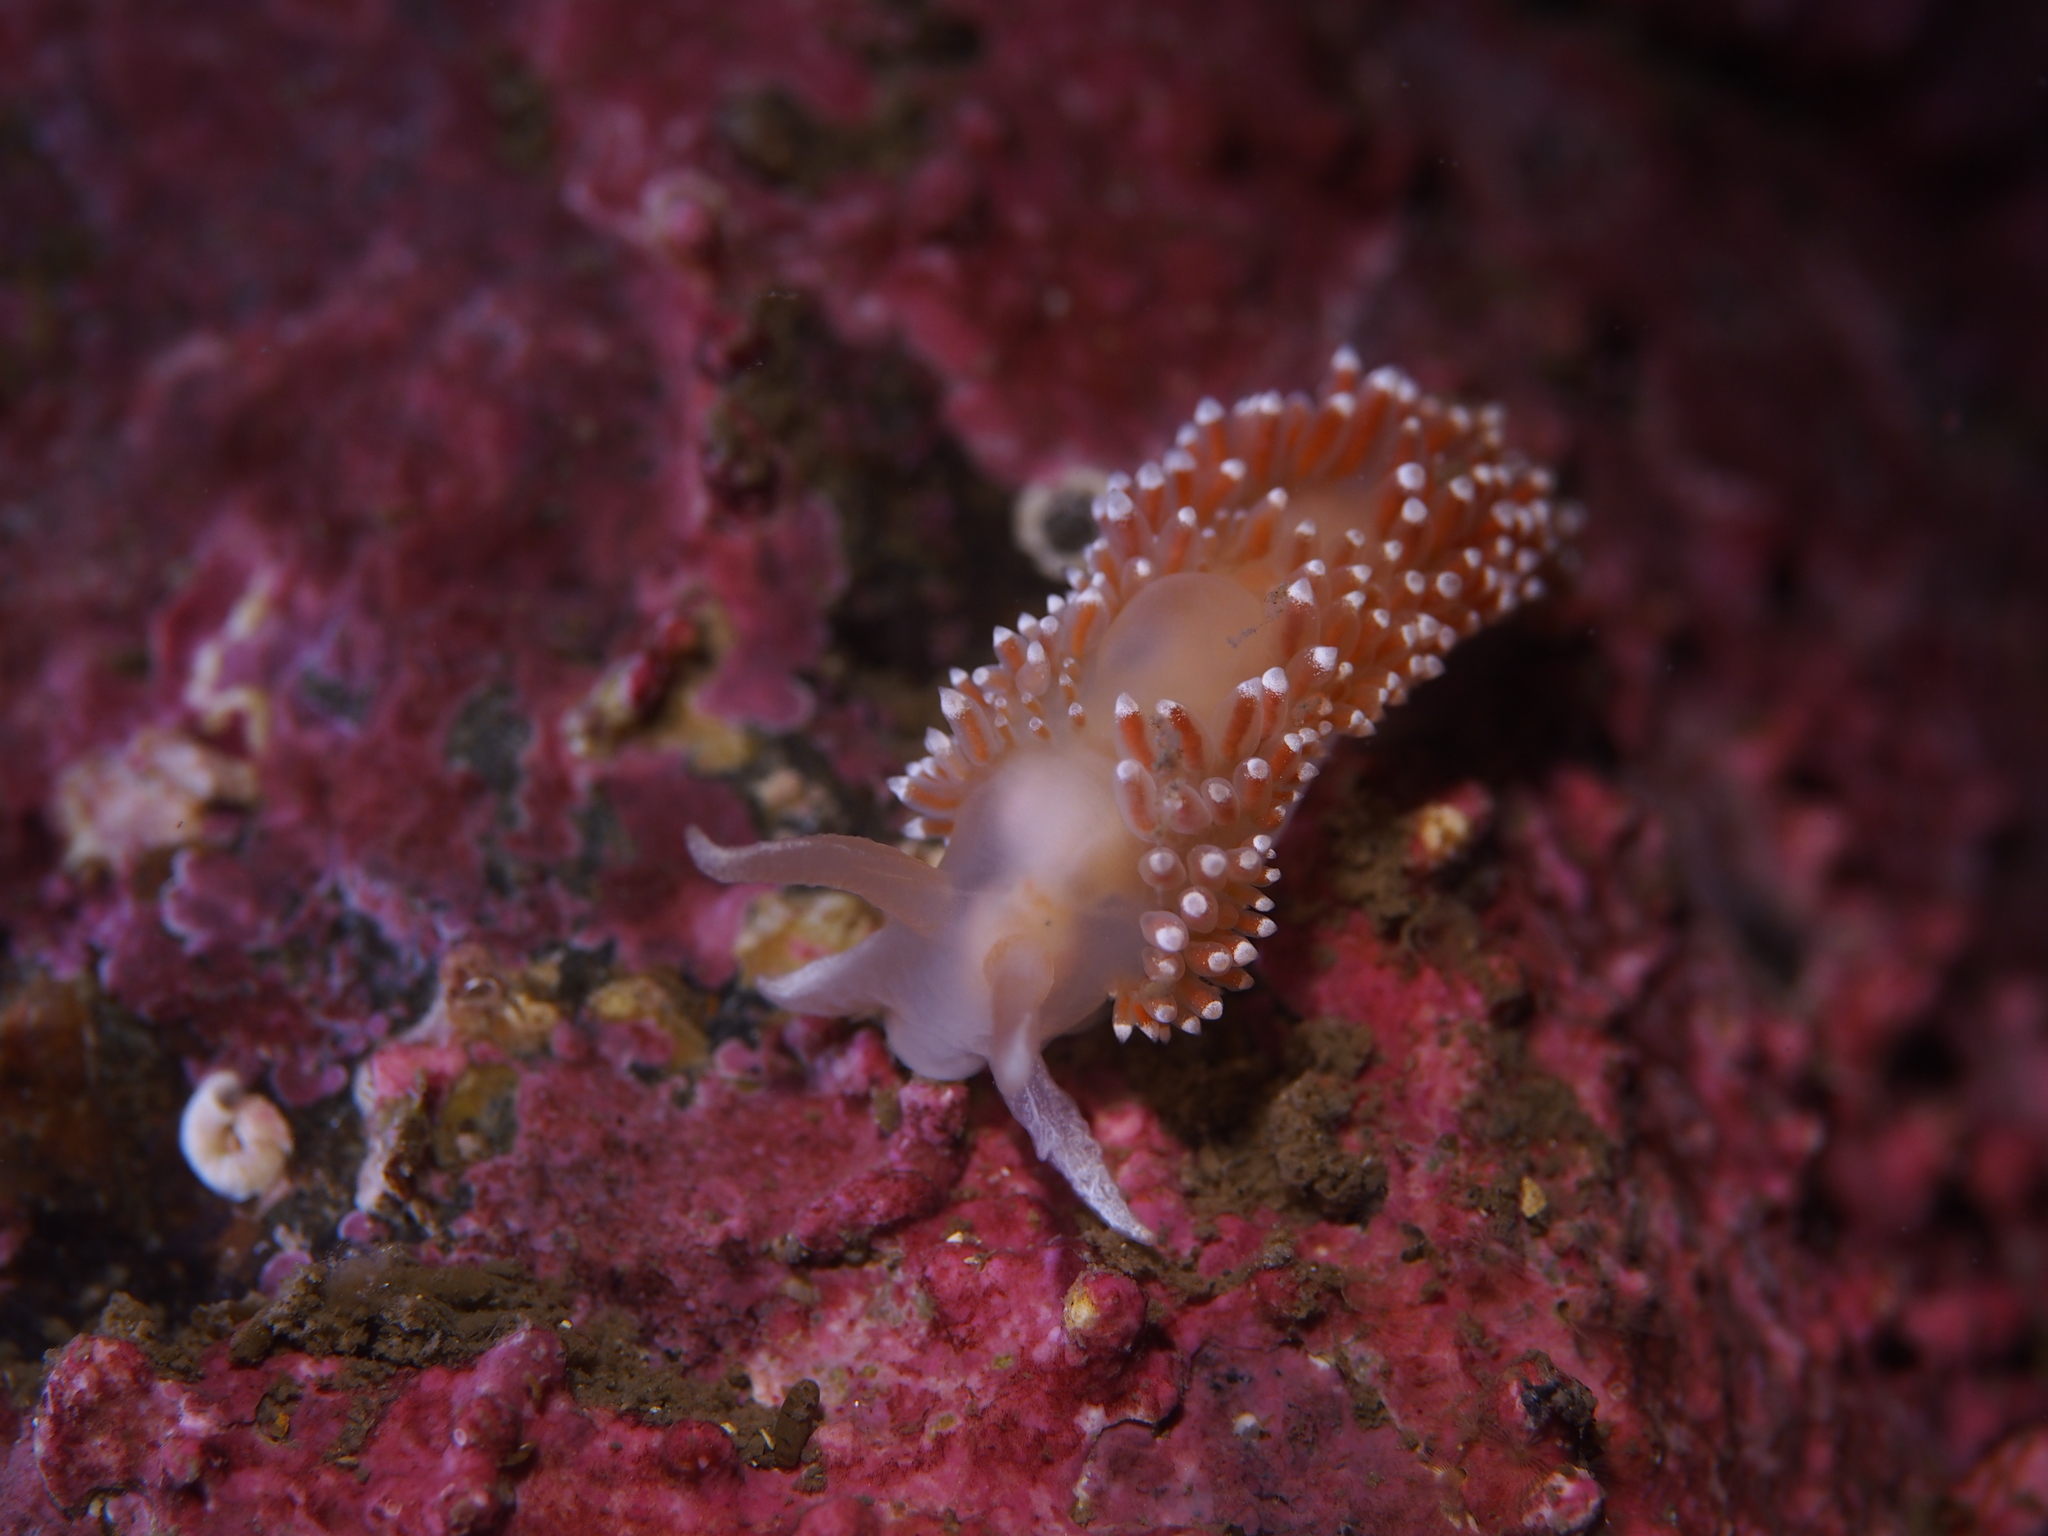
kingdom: Animalia
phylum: Mollusca
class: Gastropoda
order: Nudibranchia
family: Coryphellidae
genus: Coryphella
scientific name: Coryphella verrucosa
